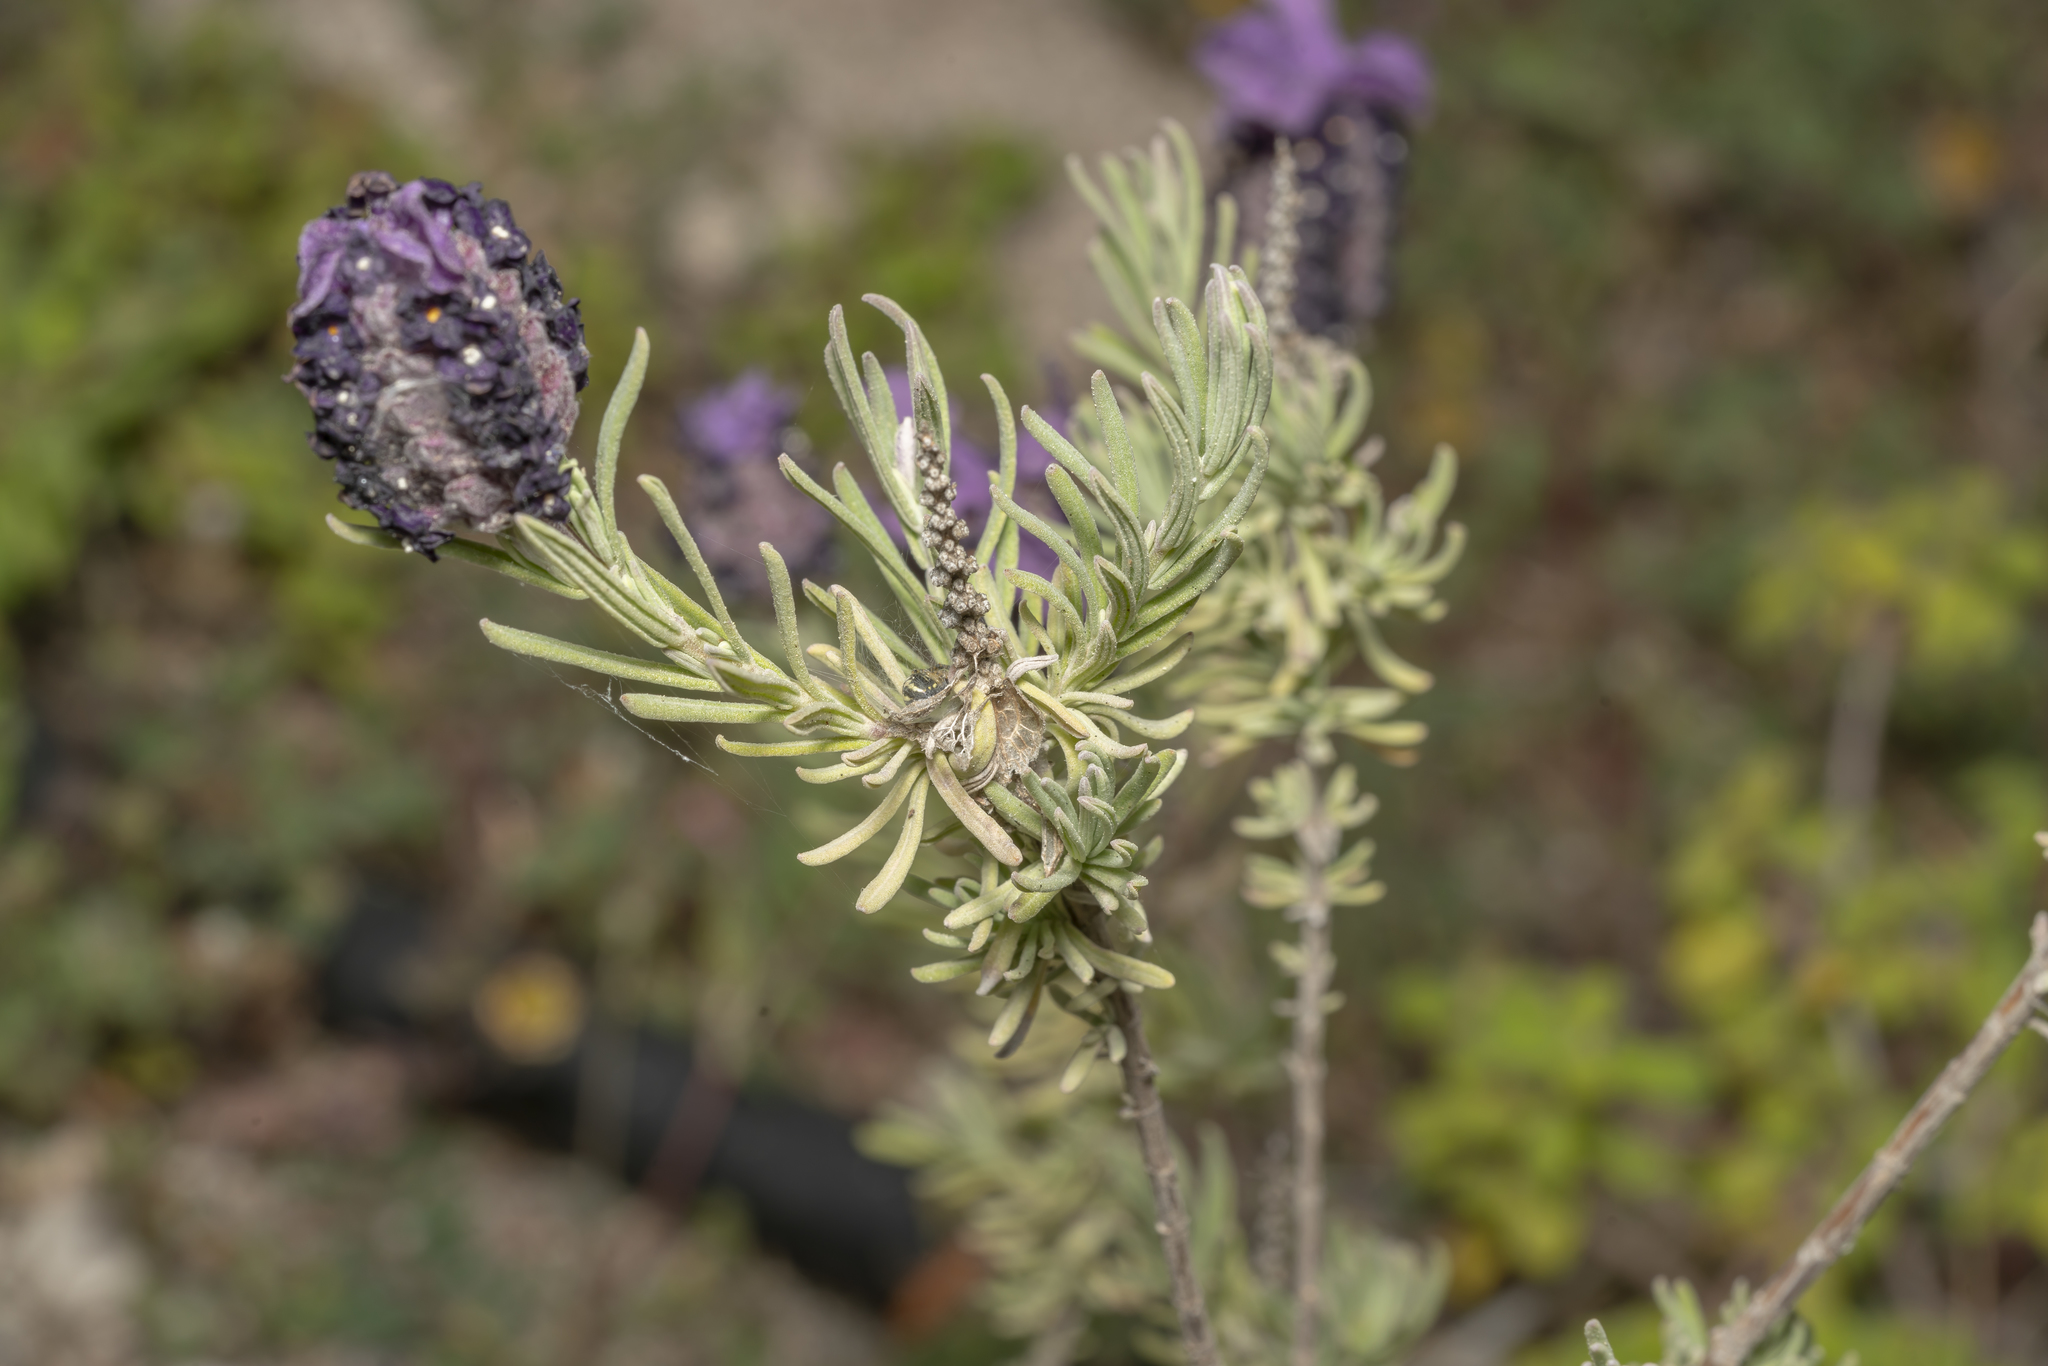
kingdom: Plantae
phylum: Tracheophyta
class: Magnoliopsida
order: Lamiales
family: Lamiaceae
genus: Lavandula
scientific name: Lavandula stoechas
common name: French lavender
